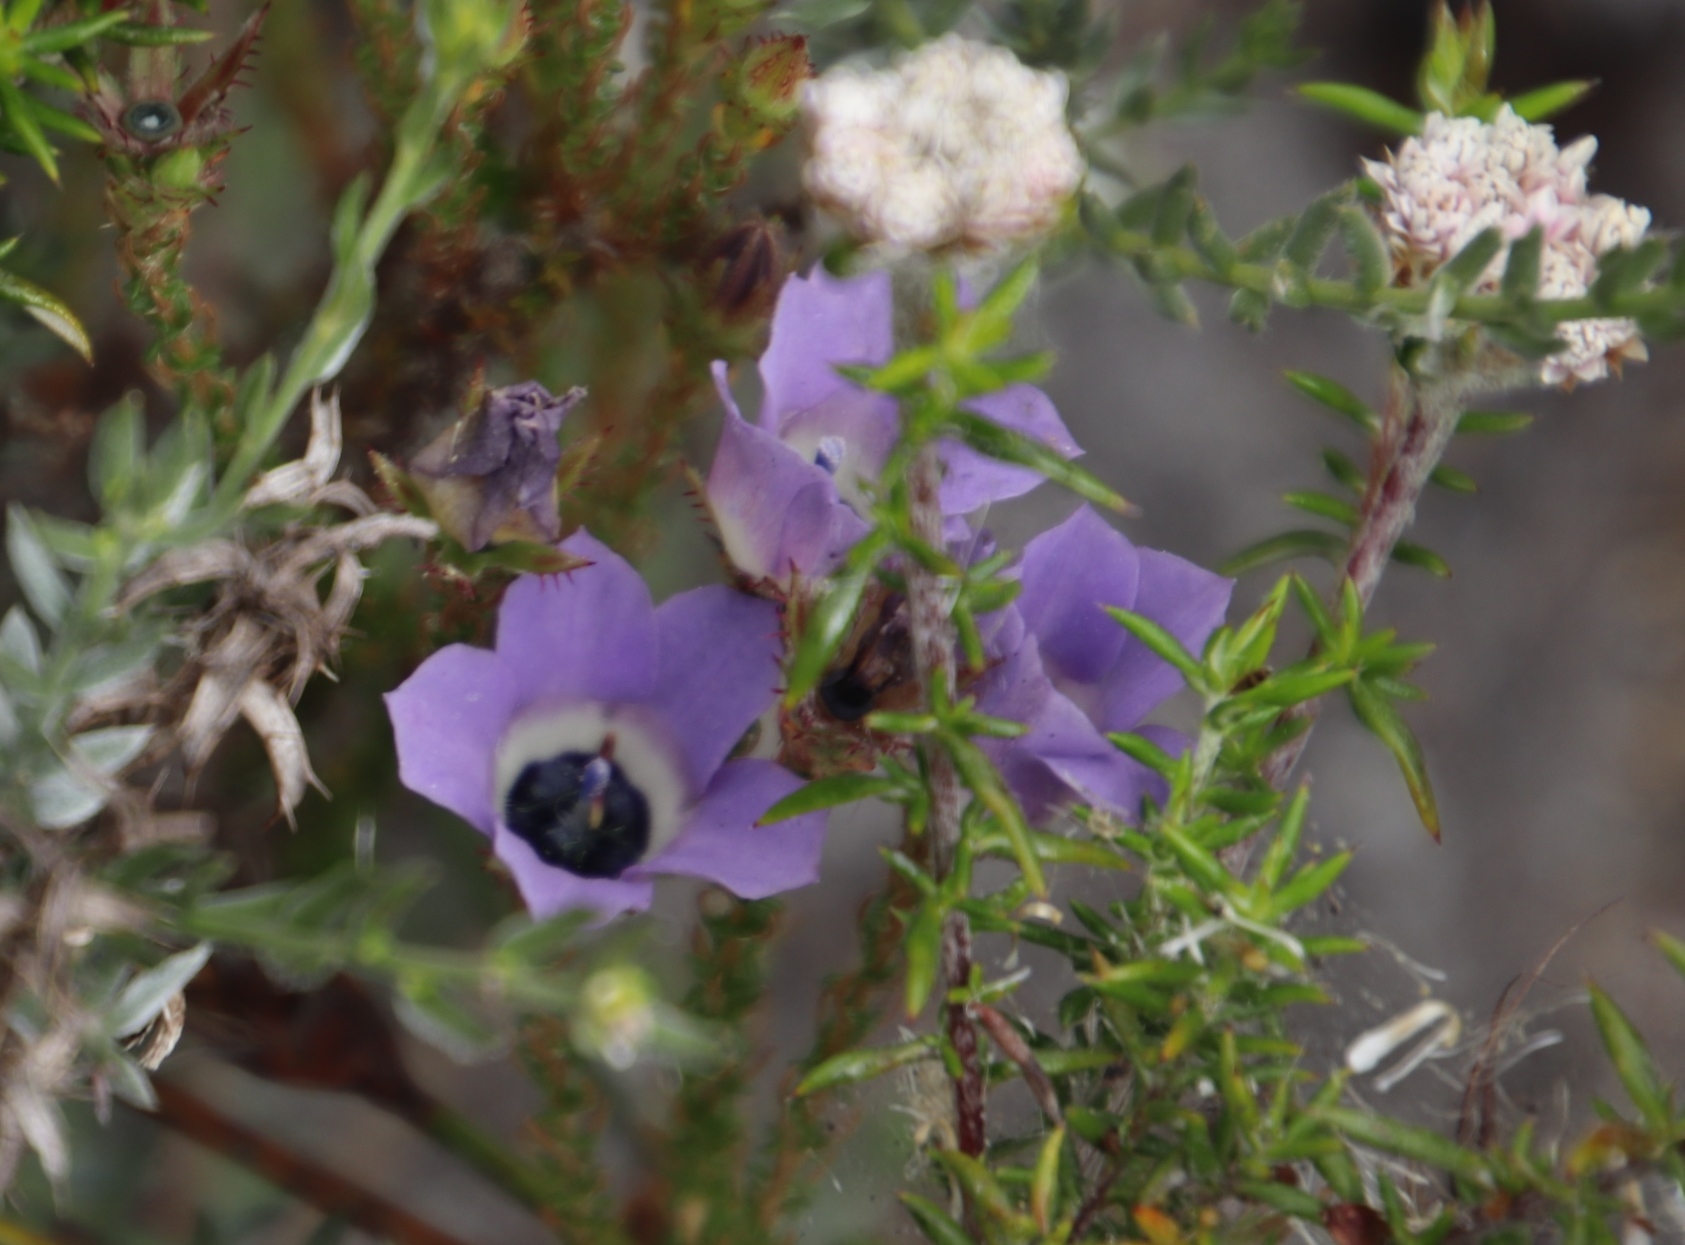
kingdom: Plantae
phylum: Tracheophyta
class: Magnoliopsida
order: Asterales
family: Campanulaceae
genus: Roella
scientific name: Roella triflora
